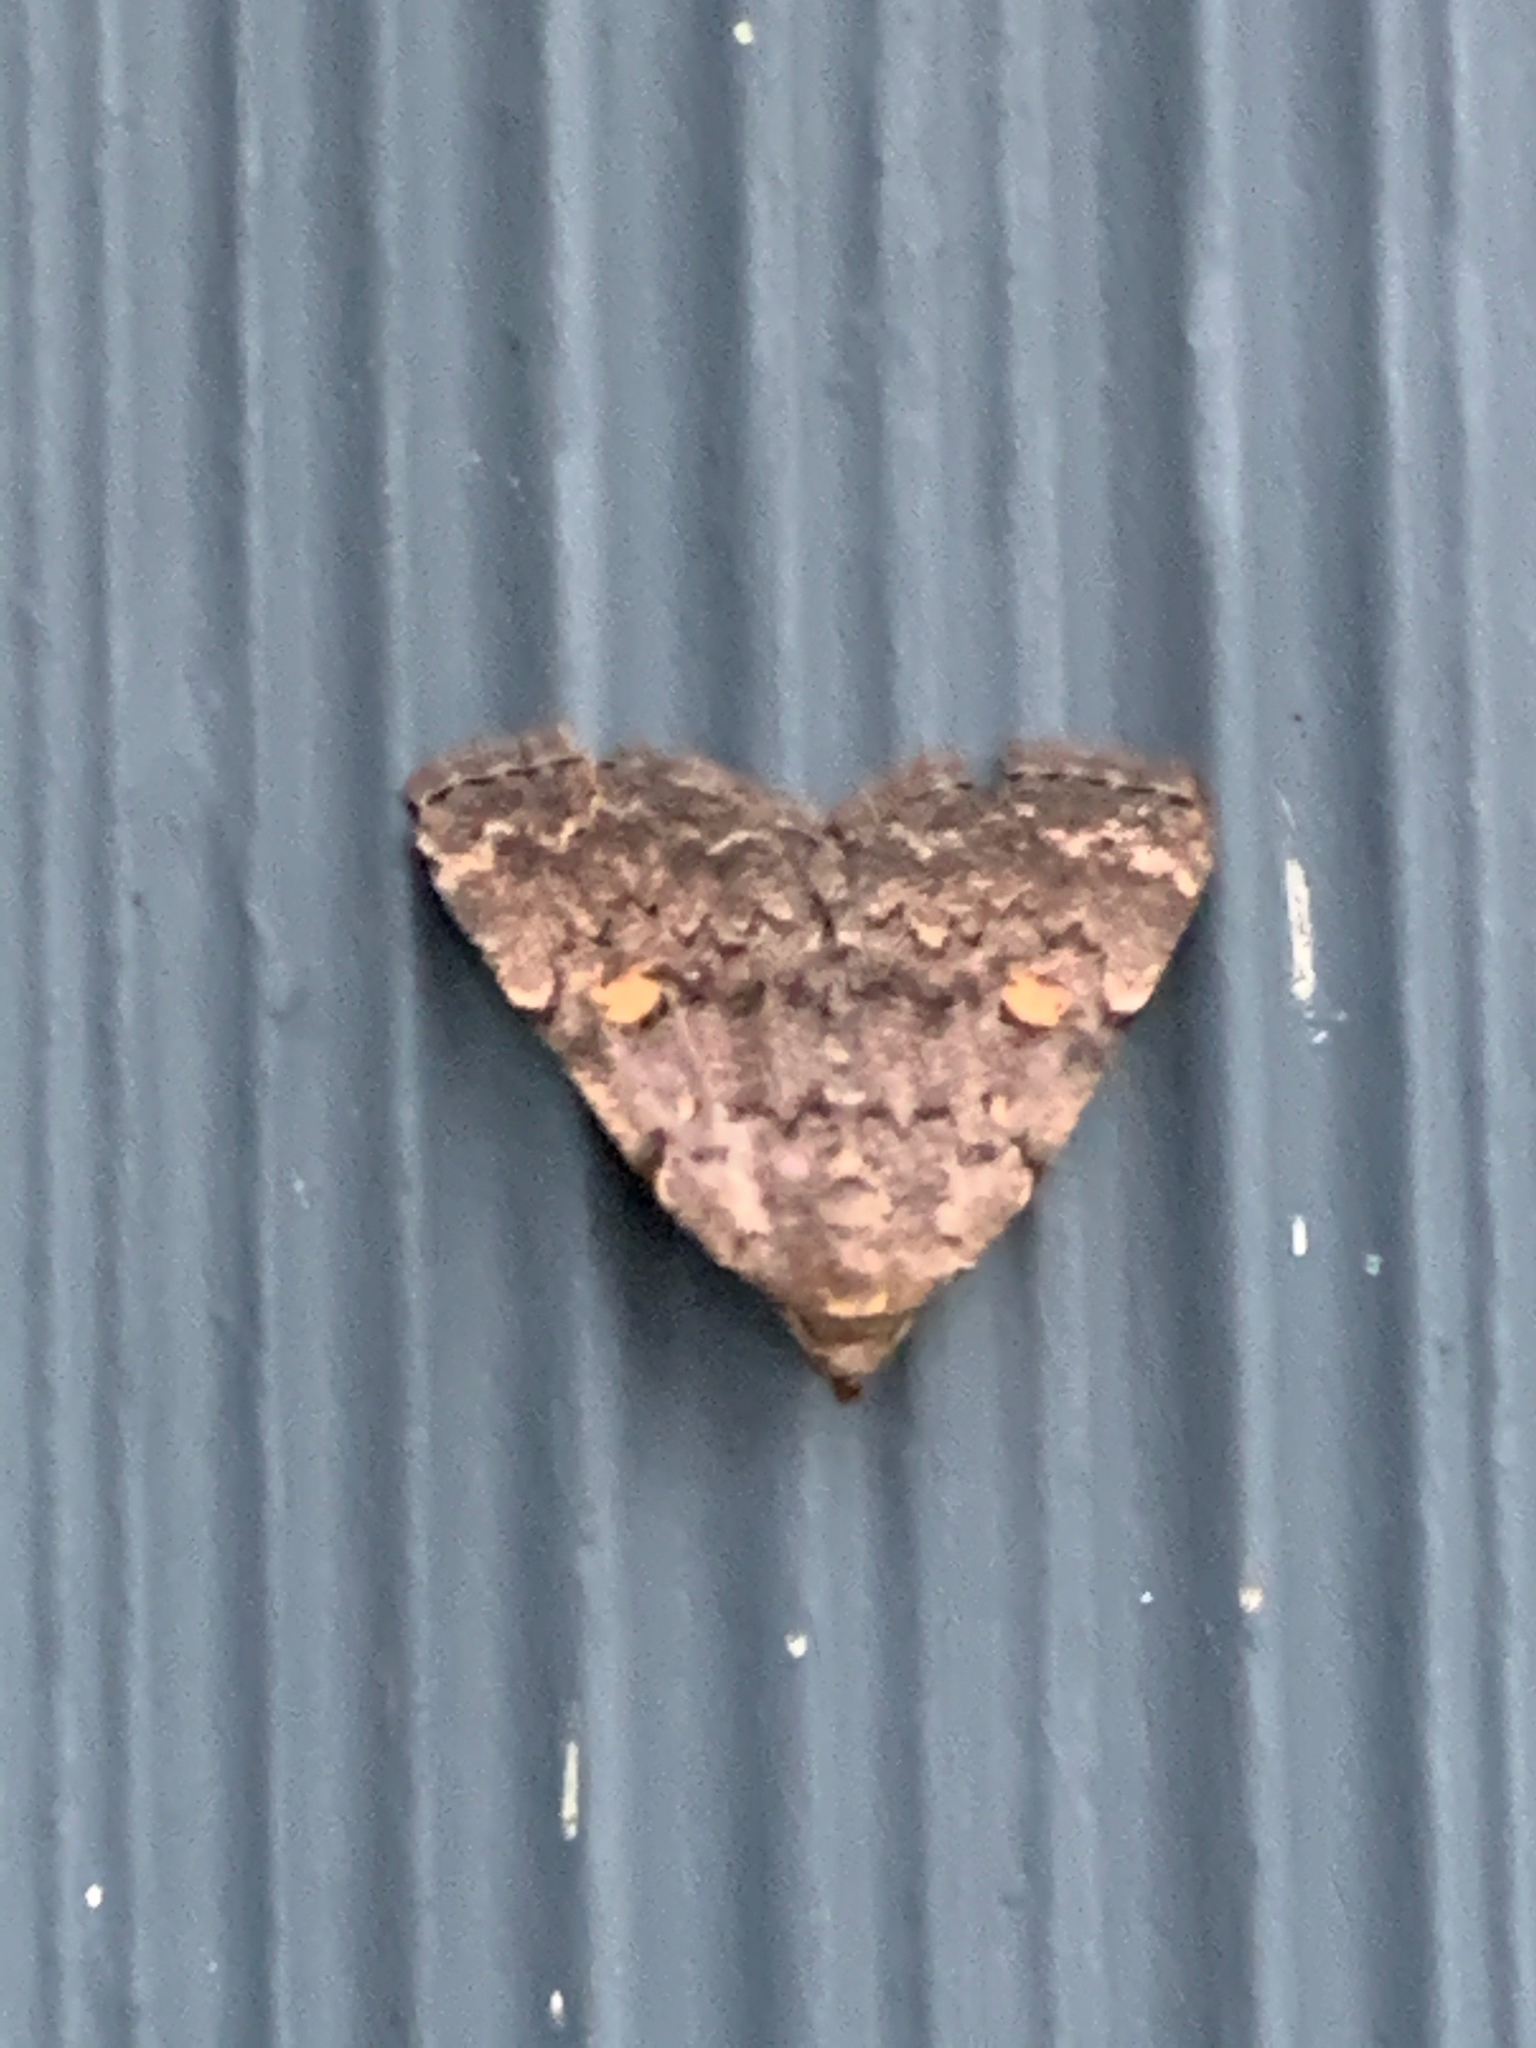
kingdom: Animalia
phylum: Arthropoda
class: Insecta
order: Lepidoptera
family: Erebidae
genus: Idia
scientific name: Idia aemula
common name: Common idia moth
